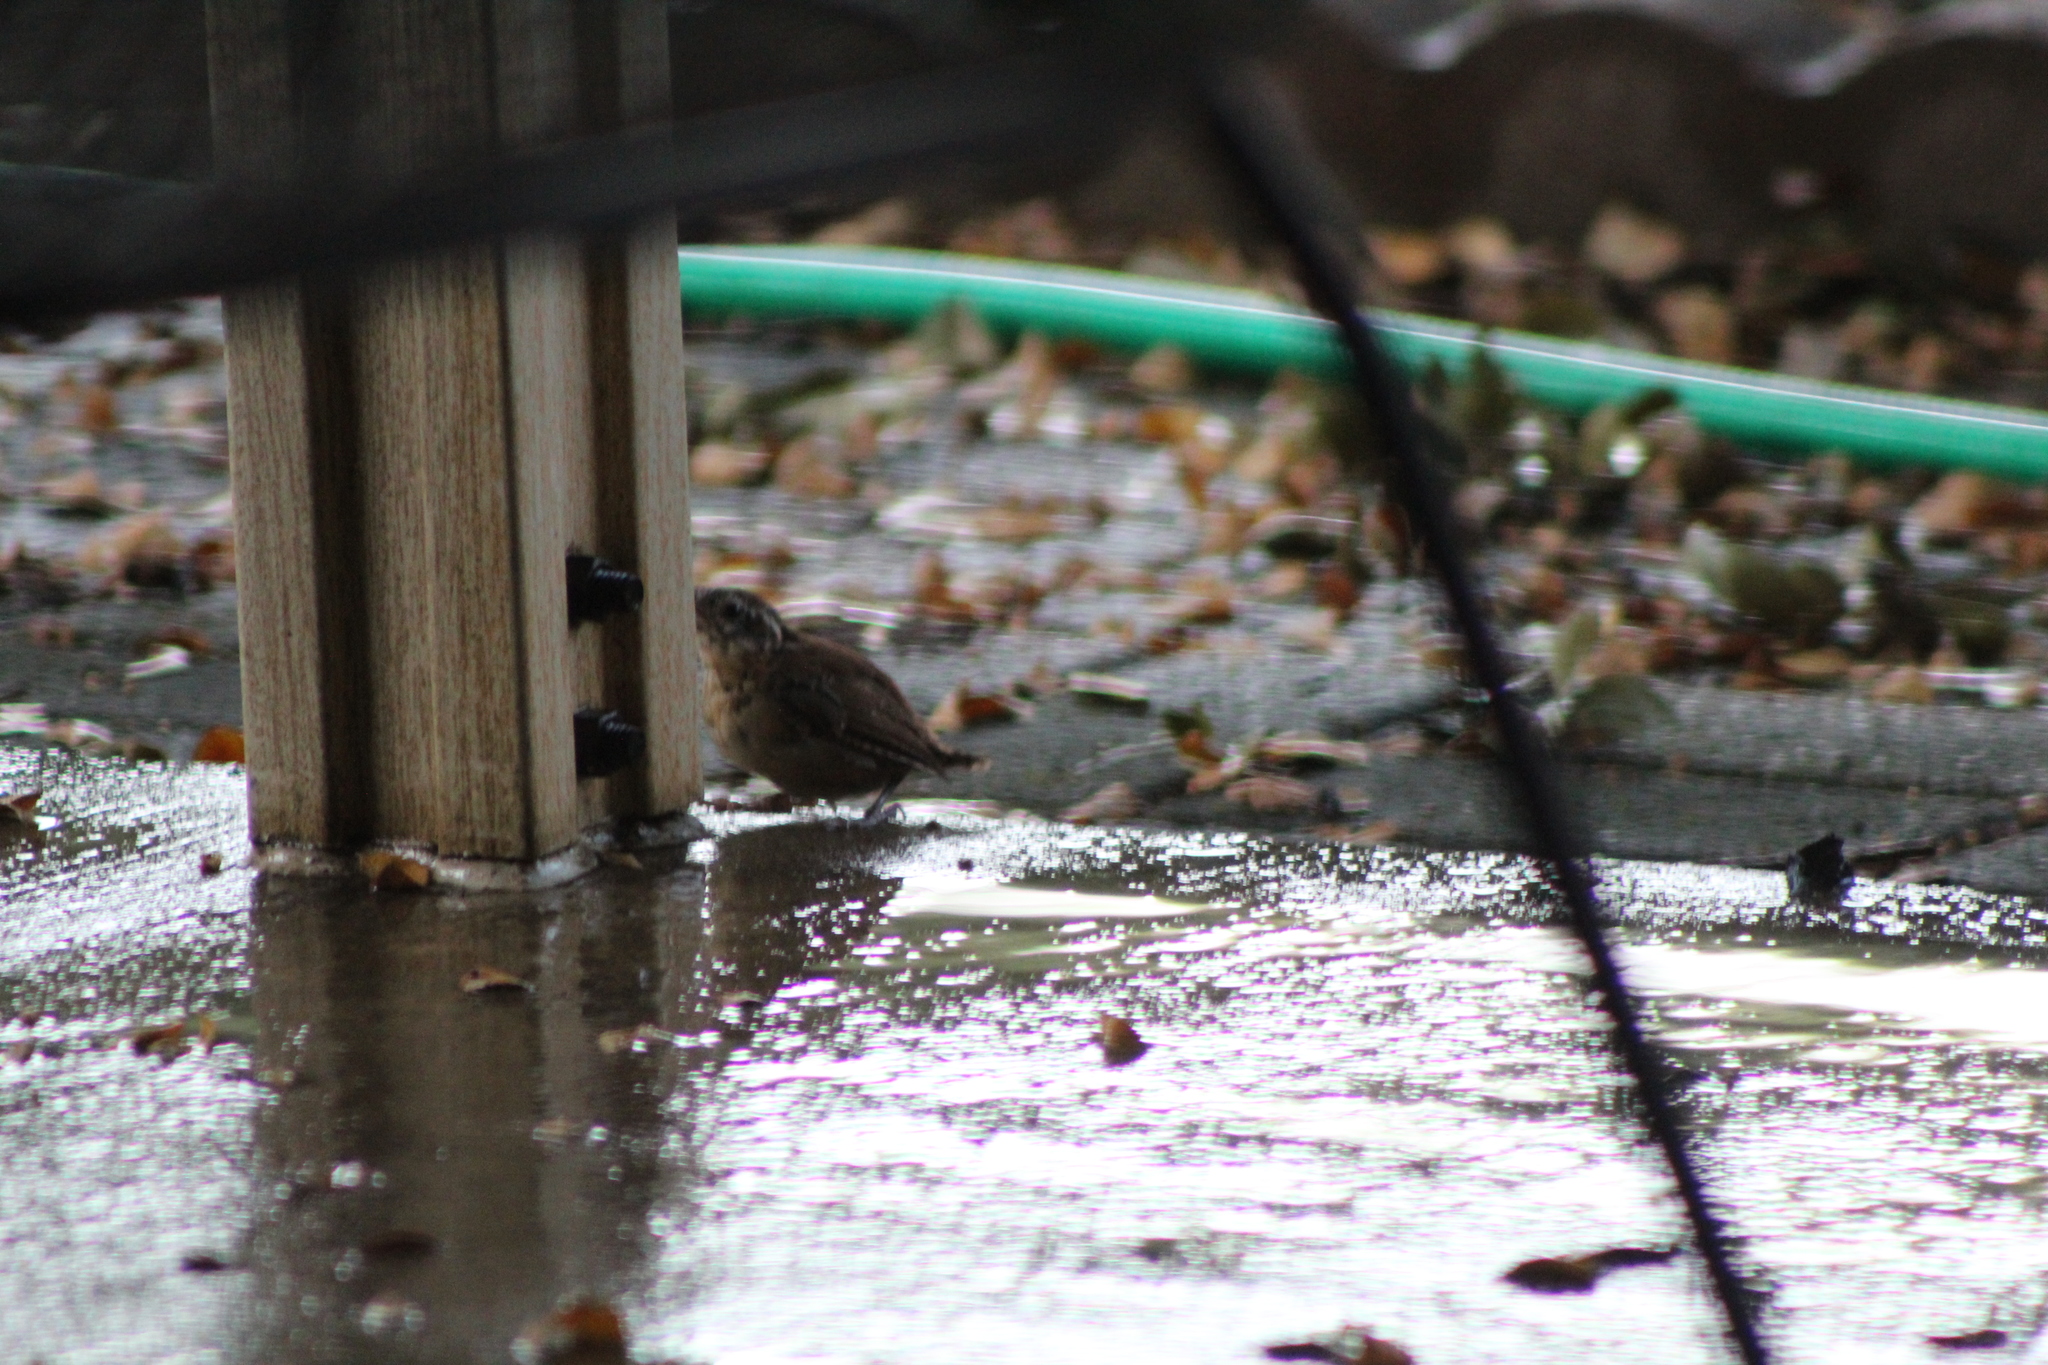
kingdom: Animalia
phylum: Chordata
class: Aves
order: Passeriformes
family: Troglodytidae
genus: Thryothorus
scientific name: Thryothorus ludovicianus
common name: Carolina wren
